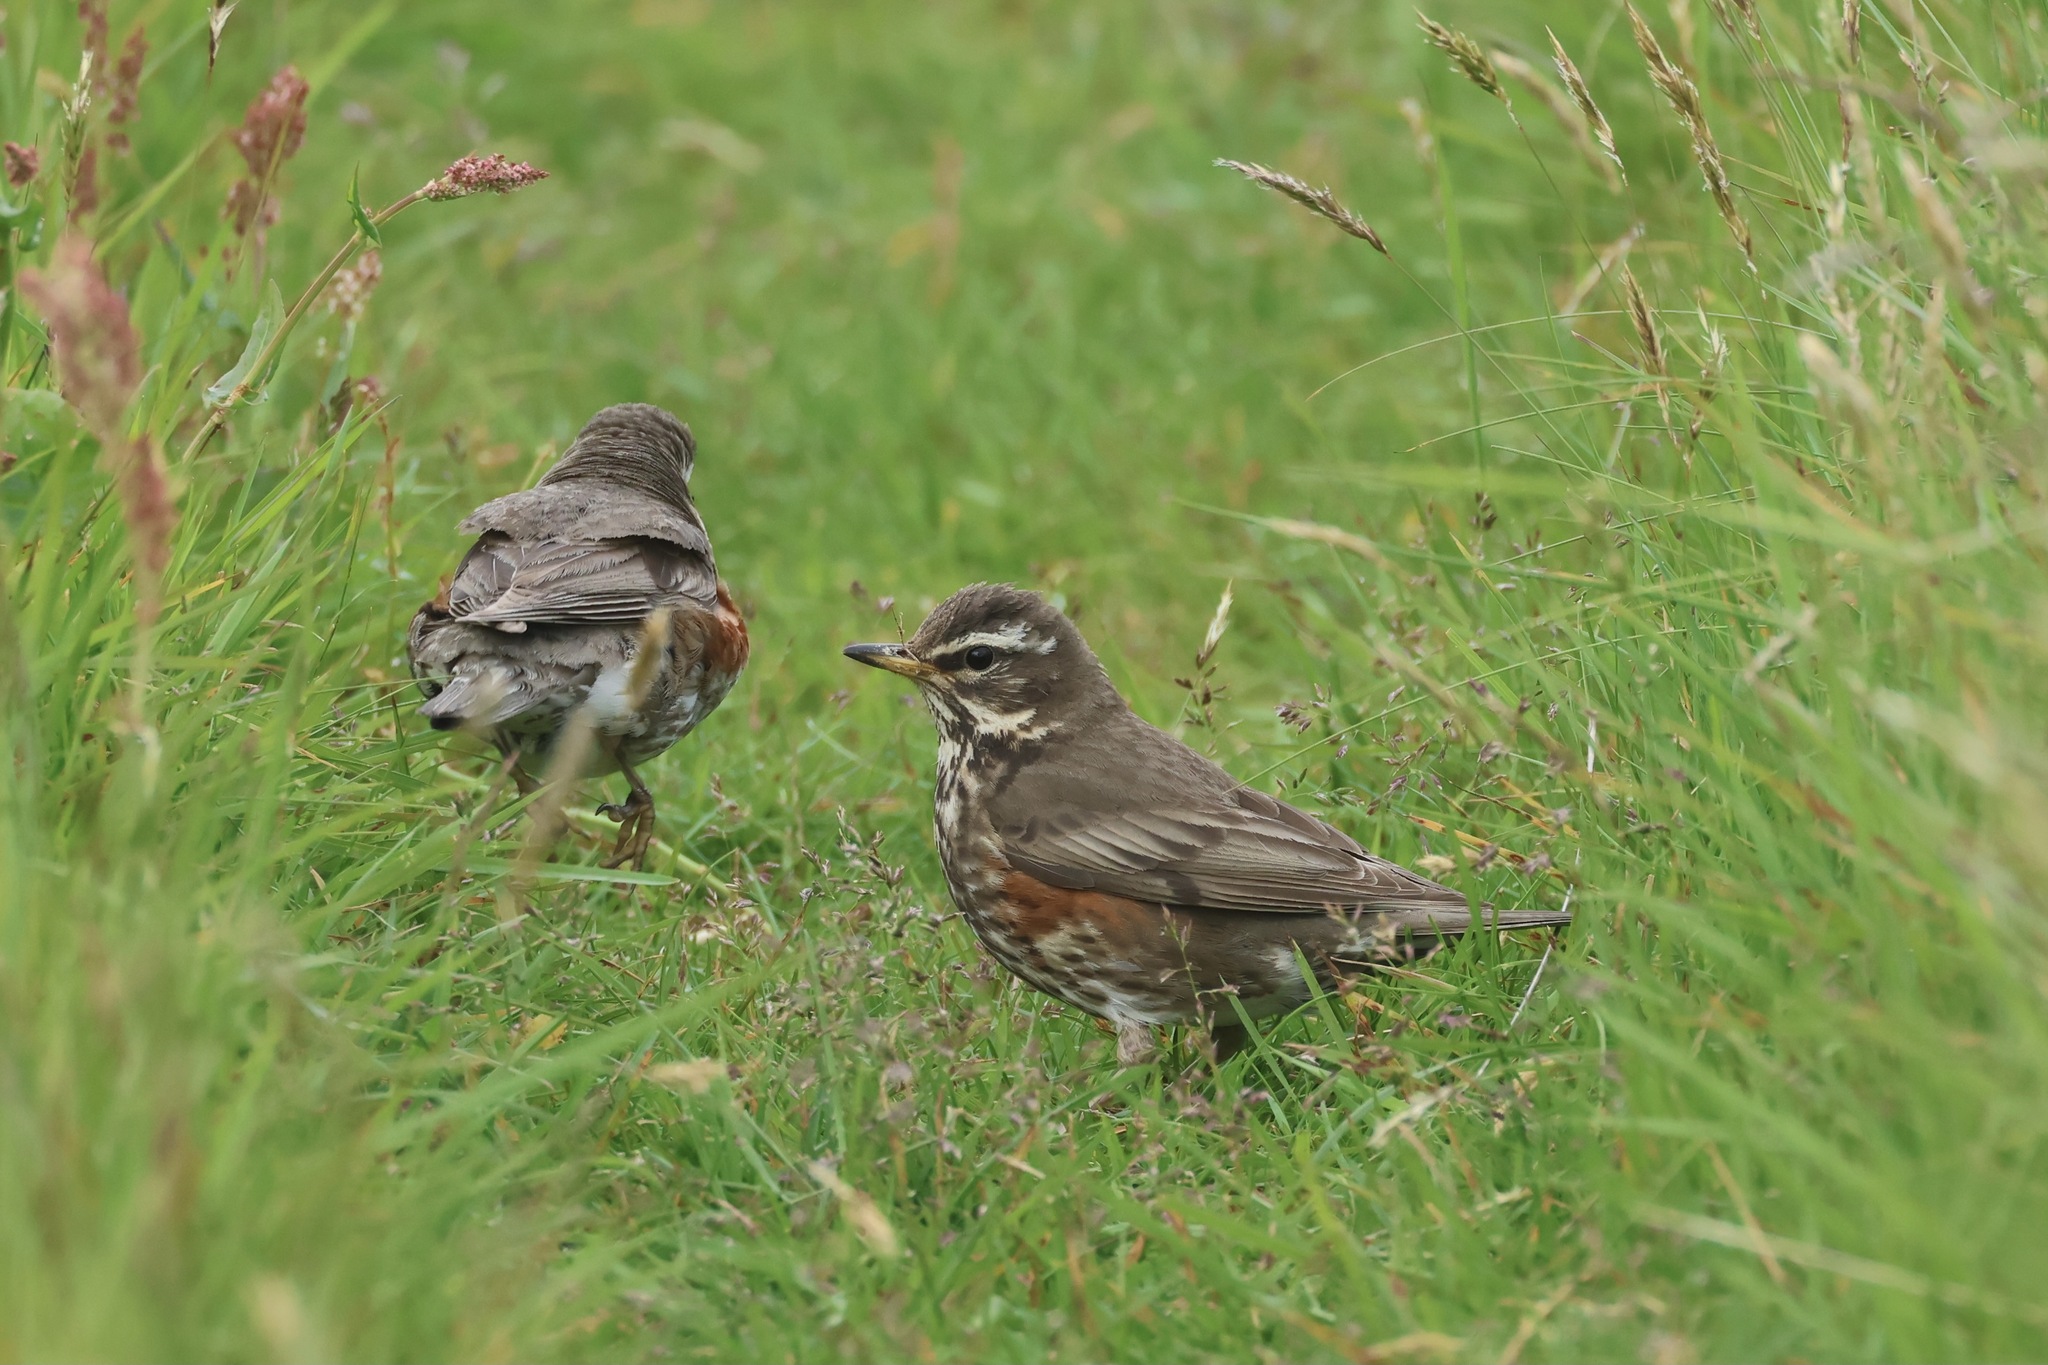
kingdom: Animalia
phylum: Chordata
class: Aves
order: Passeriformes
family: Turdidae
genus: Turdus
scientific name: Turdus iliacus
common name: Redwing
